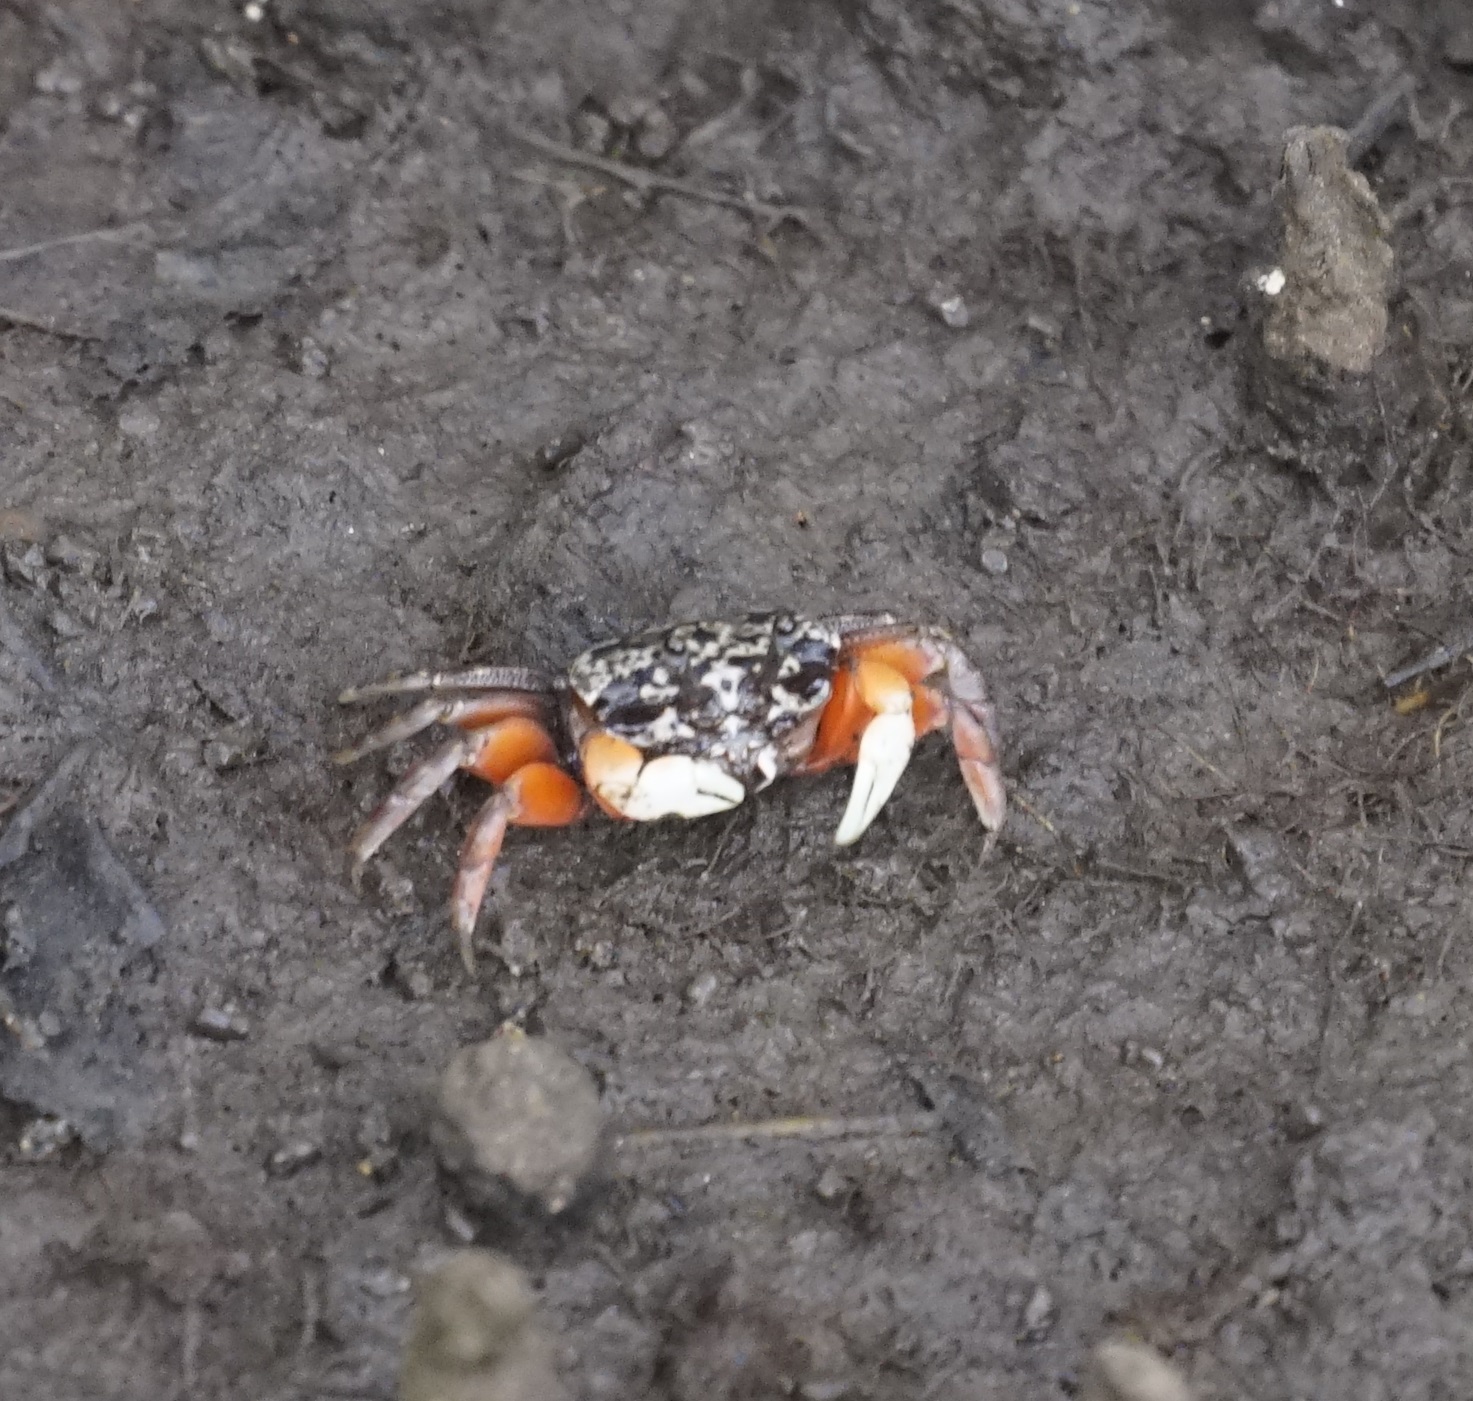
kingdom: Animalia
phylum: Arthropoda
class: Malacostraca
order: Decapoda
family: Heloeciidae
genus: Heloecius
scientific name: Heloecius cordiformis
